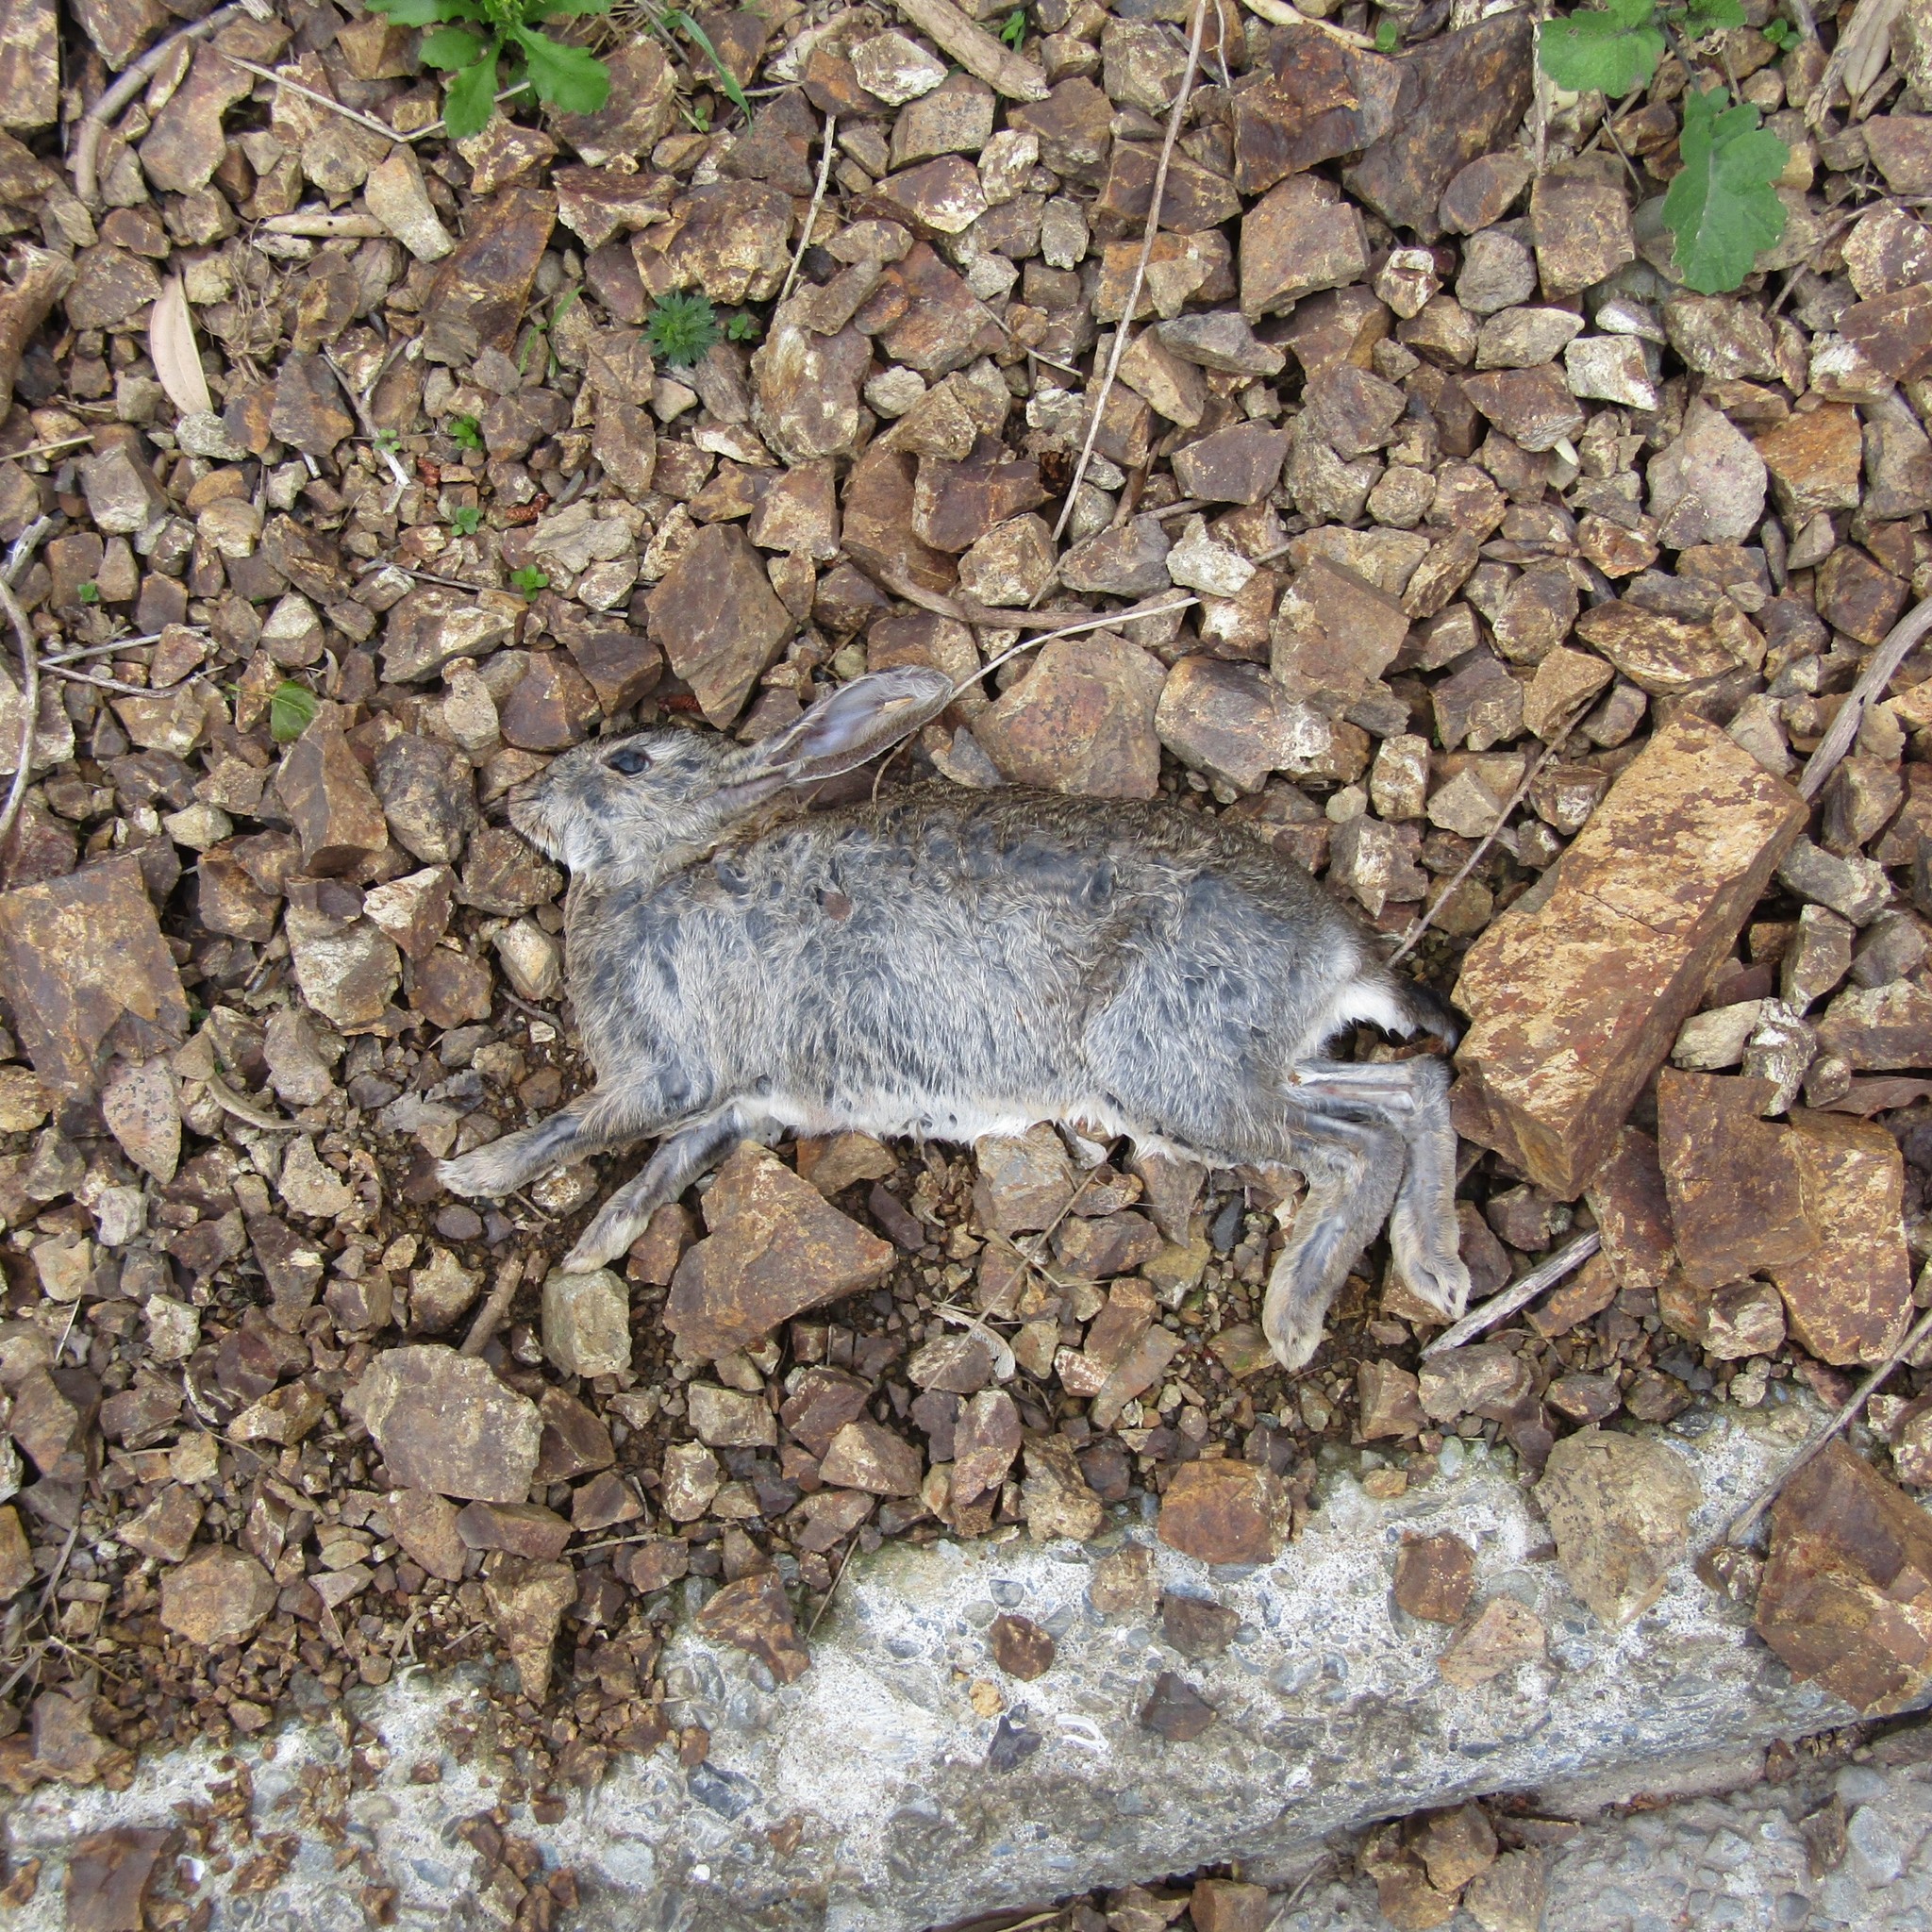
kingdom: Animalia
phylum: Chordata
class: Mammalia
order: Lagomorpha
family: Leporidae
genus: Oryctolagus
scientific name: Oryctolagus cuniculus
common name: European rabbit
